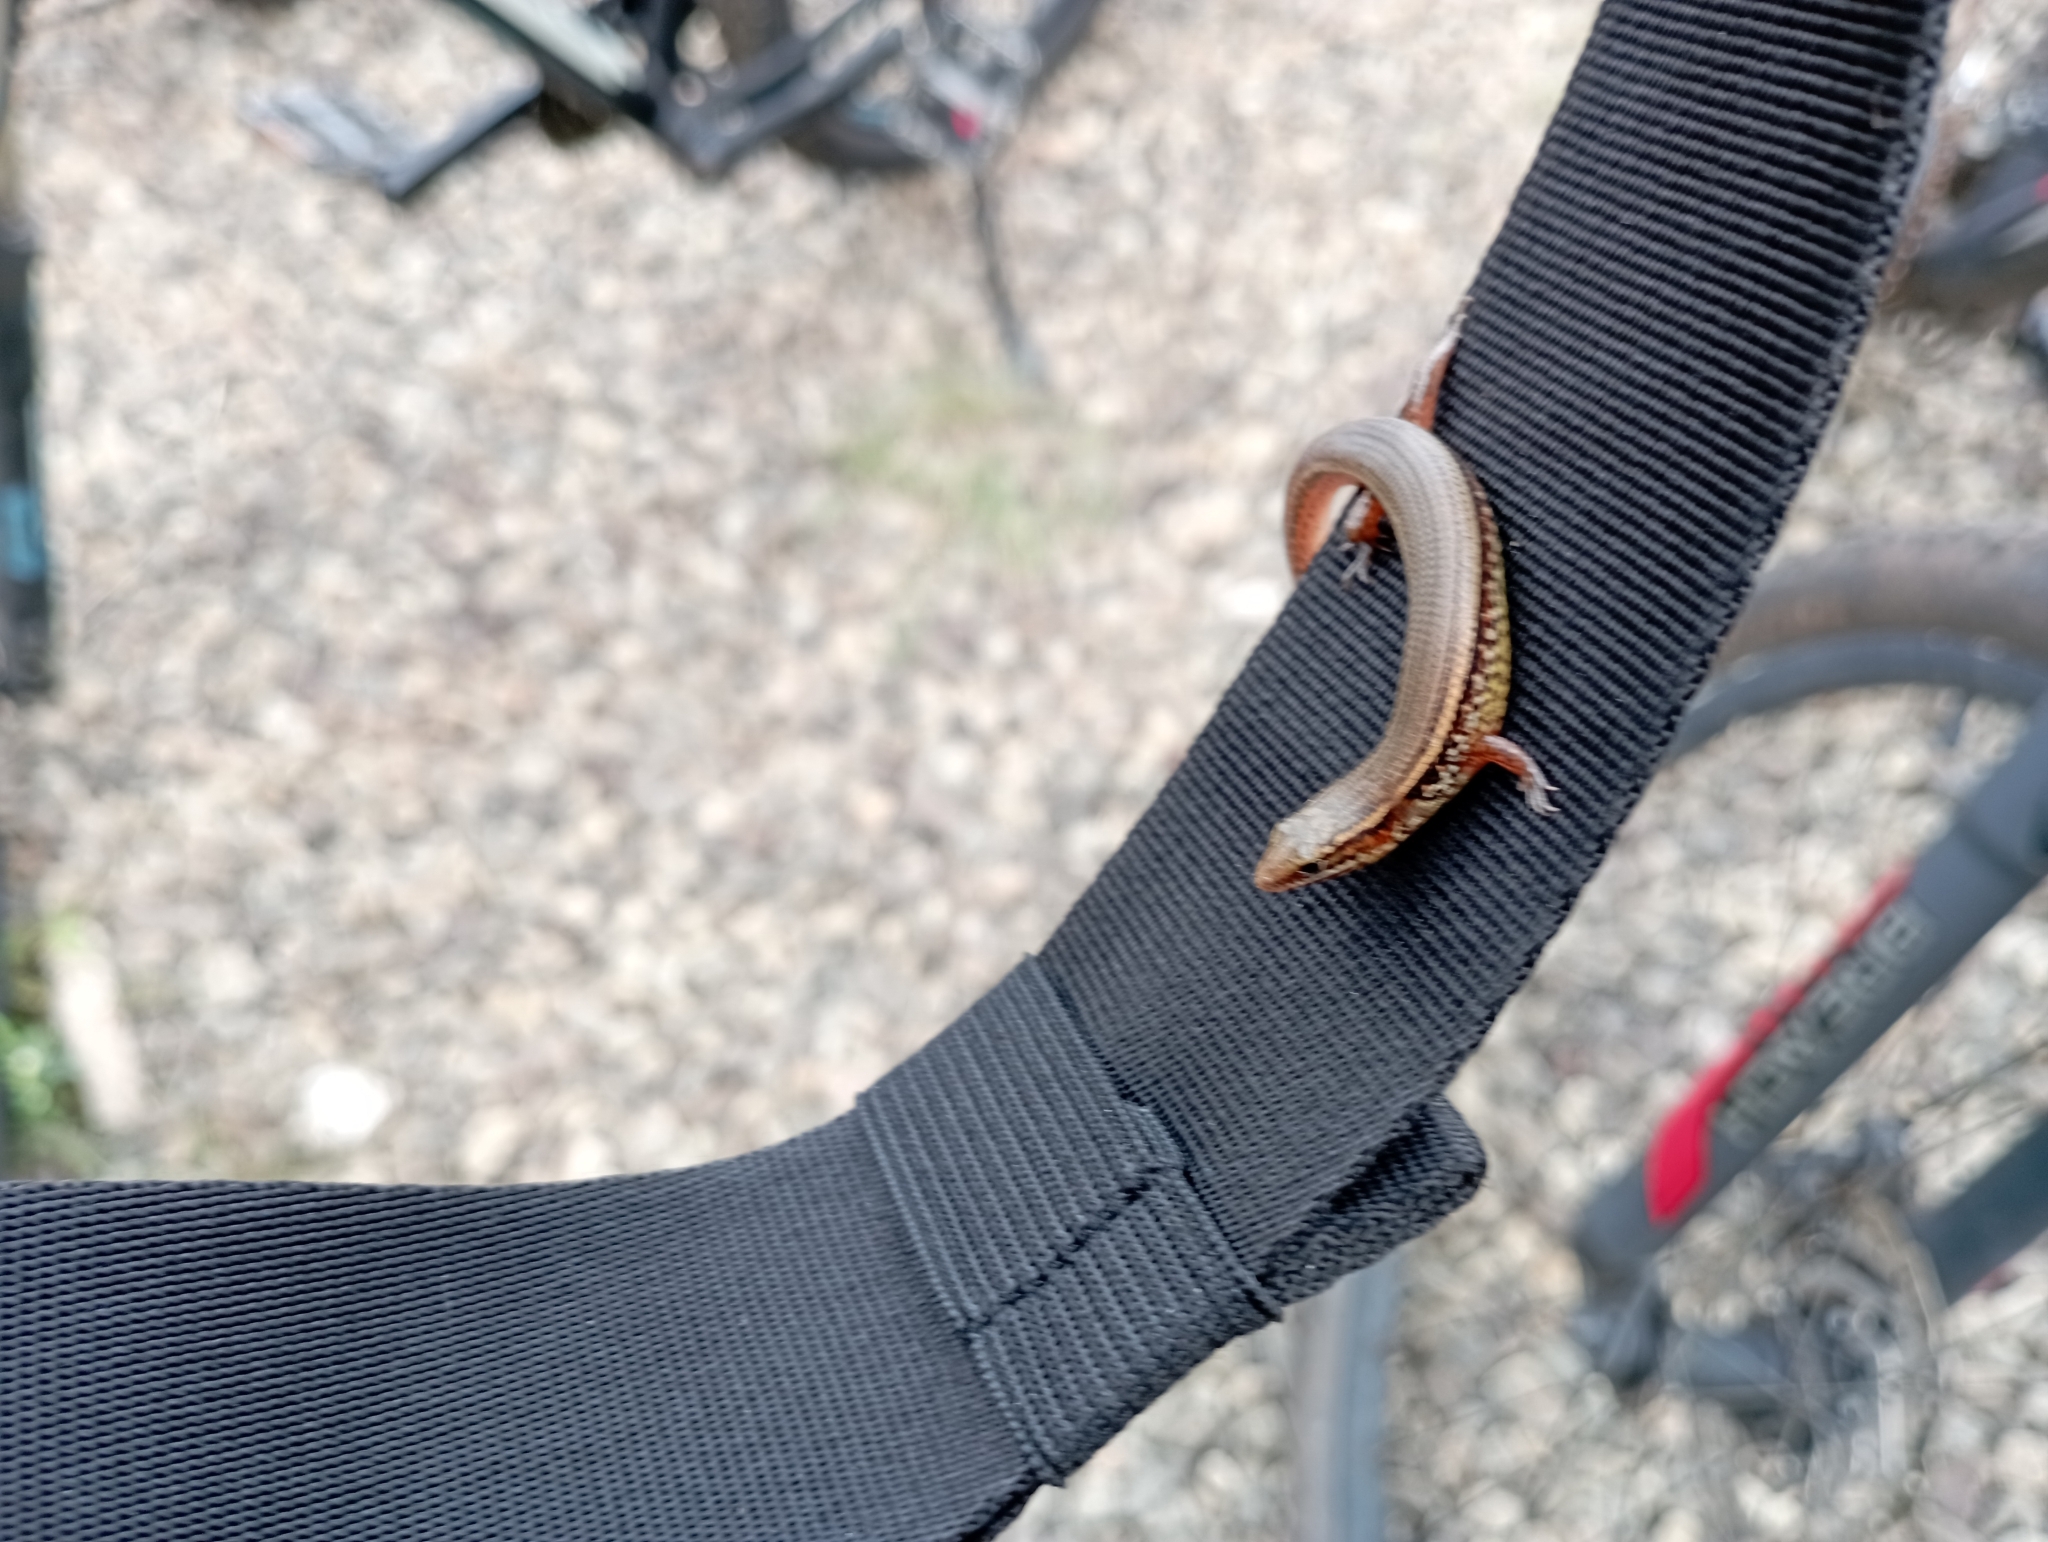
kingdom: Animalia
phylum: Chordata
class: Squamata
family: Scincidae
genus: Subdoluseps
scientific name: Subdoluseps bowringii
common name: Christmas island grass-skink
